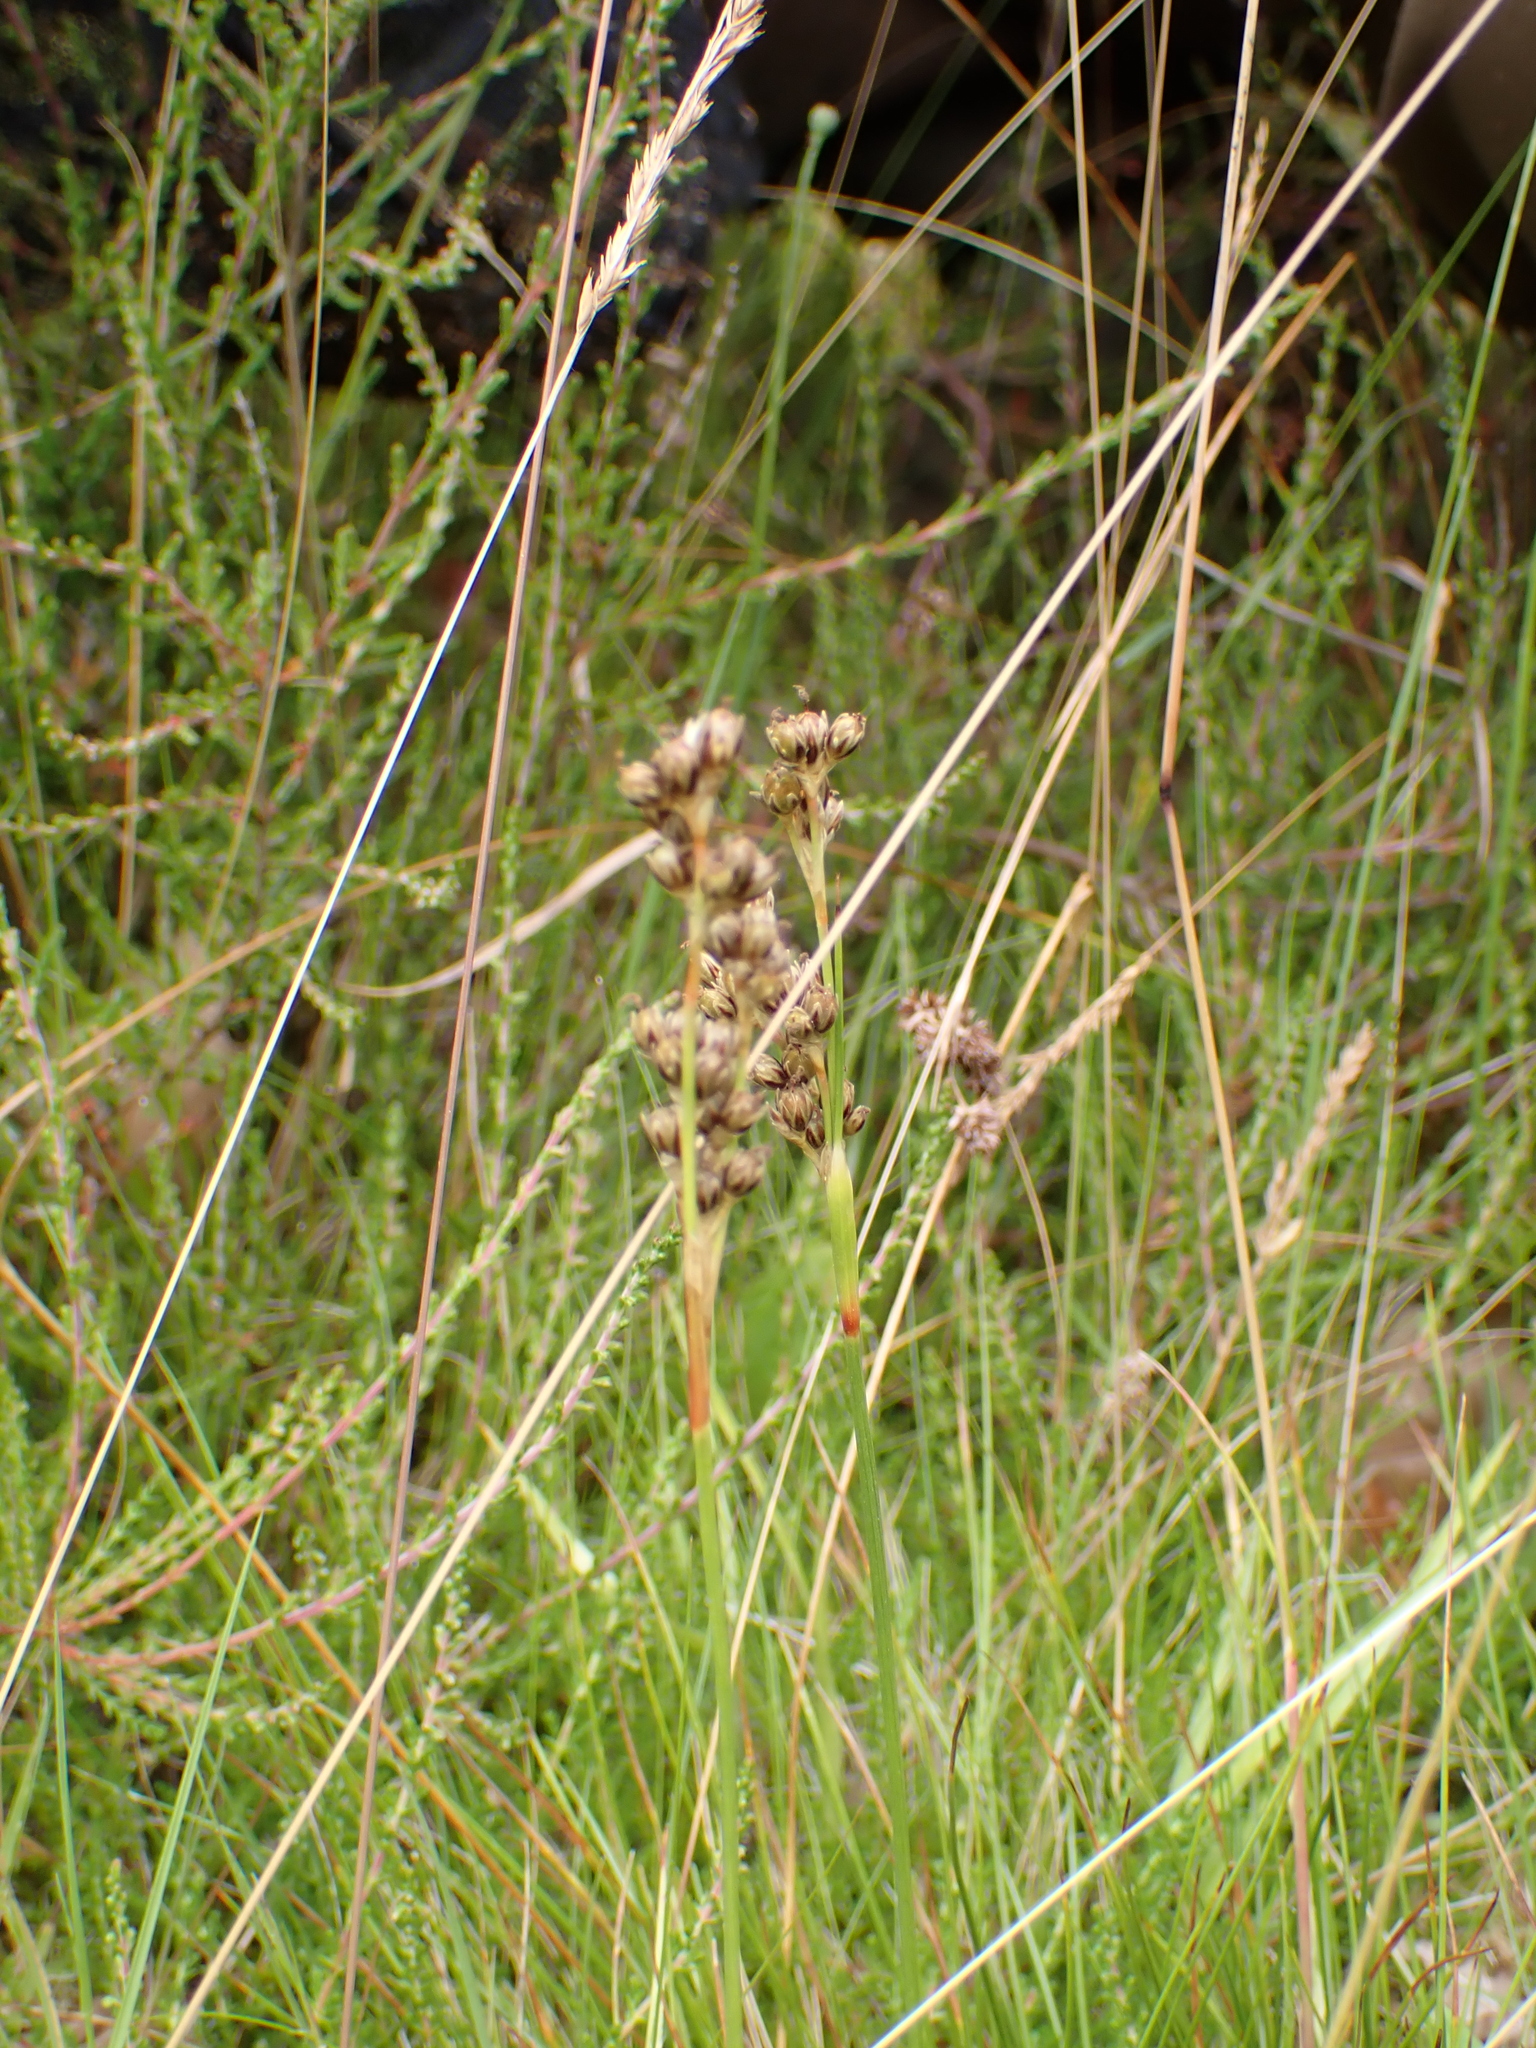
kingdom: Plantae
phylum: Tracheophyta
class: Liliopsida
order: Poales
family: Juncaceae
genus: Juncus
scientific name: Juncus squarrosus
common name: Heath rush
